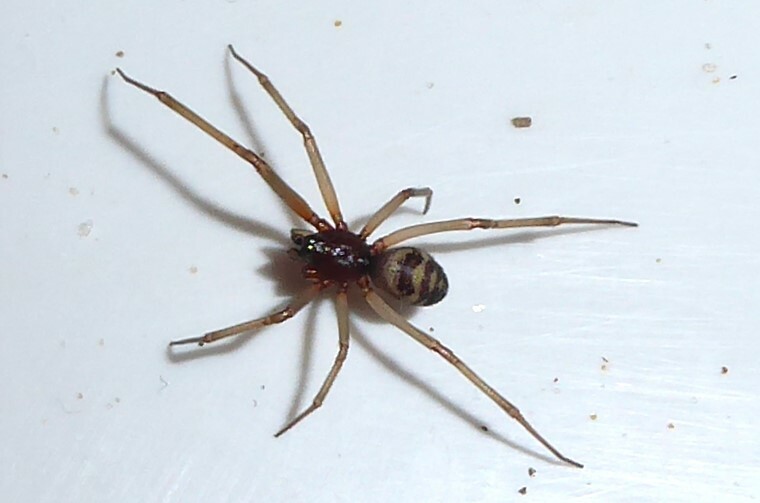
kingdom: Animalia
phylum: Arthropoda
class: Arachnida
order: Araneae
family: Theridiidae
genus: Steatoda
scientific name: Steatoda grossa
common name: False black widow
